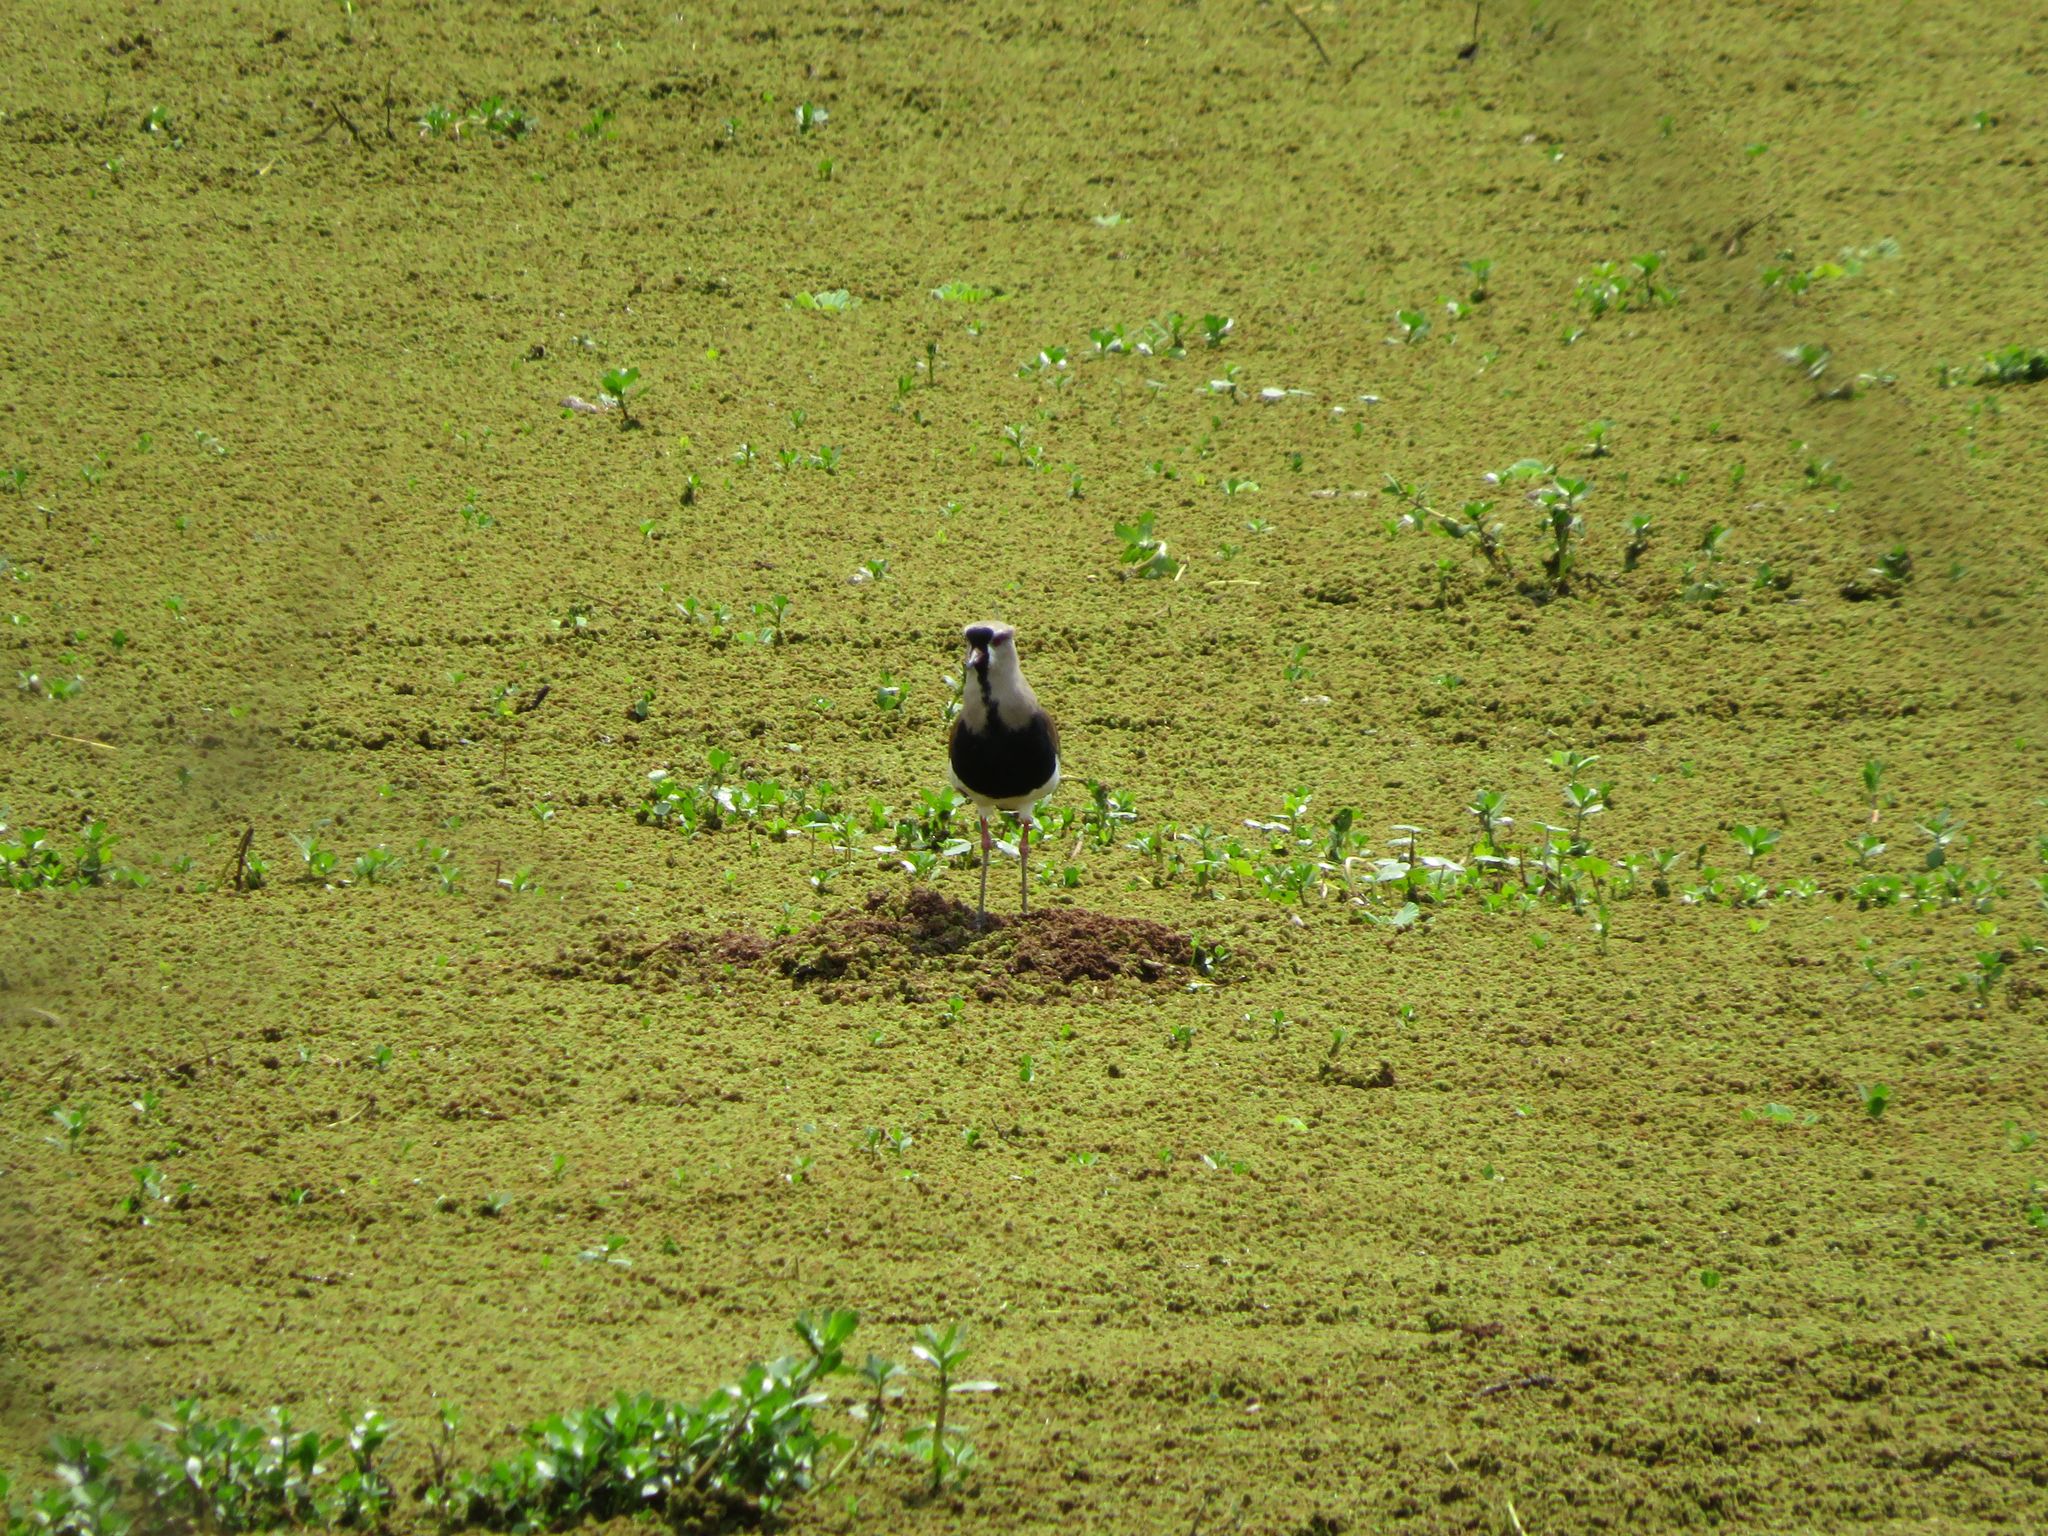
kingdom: Animalia
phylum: Chordata
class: Aves
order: Charadriiformes
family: Charadriidae
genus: Vanellus
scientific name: Vanellus chilensis
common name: Southern lapwing
